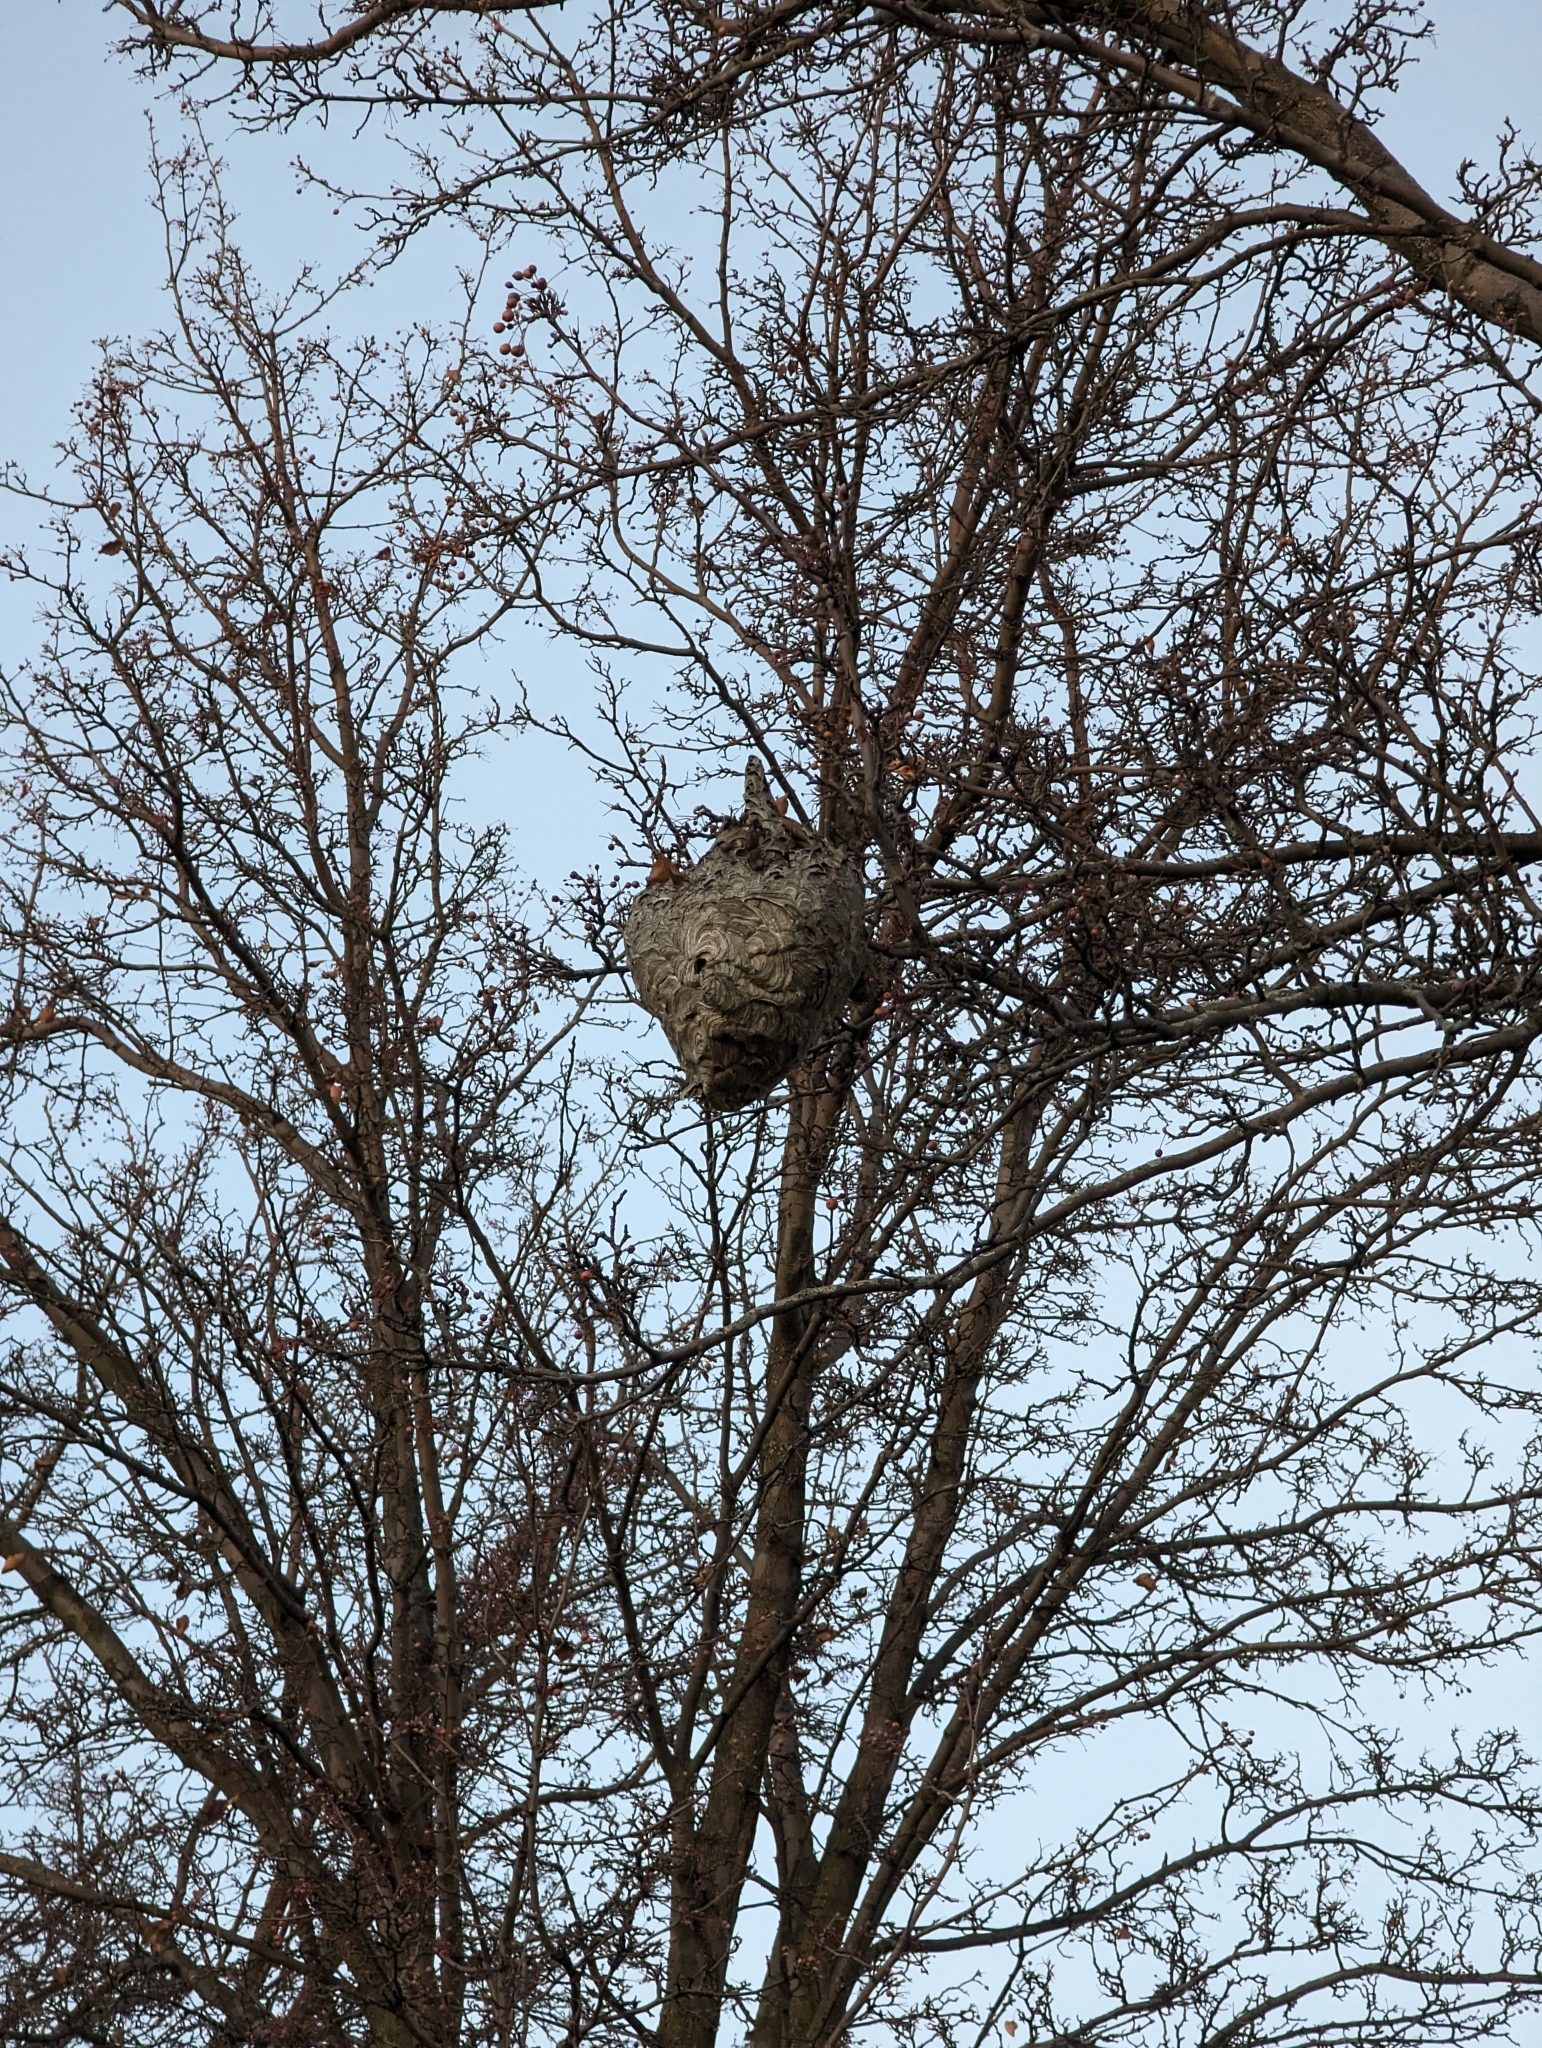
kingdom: Animalia
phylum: Arthropoda
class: Insecta
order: Hymenoptera
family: Vespidae
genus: Dolichovespula
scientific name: Dolichovespula maculata
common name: Bald-faced hornet
